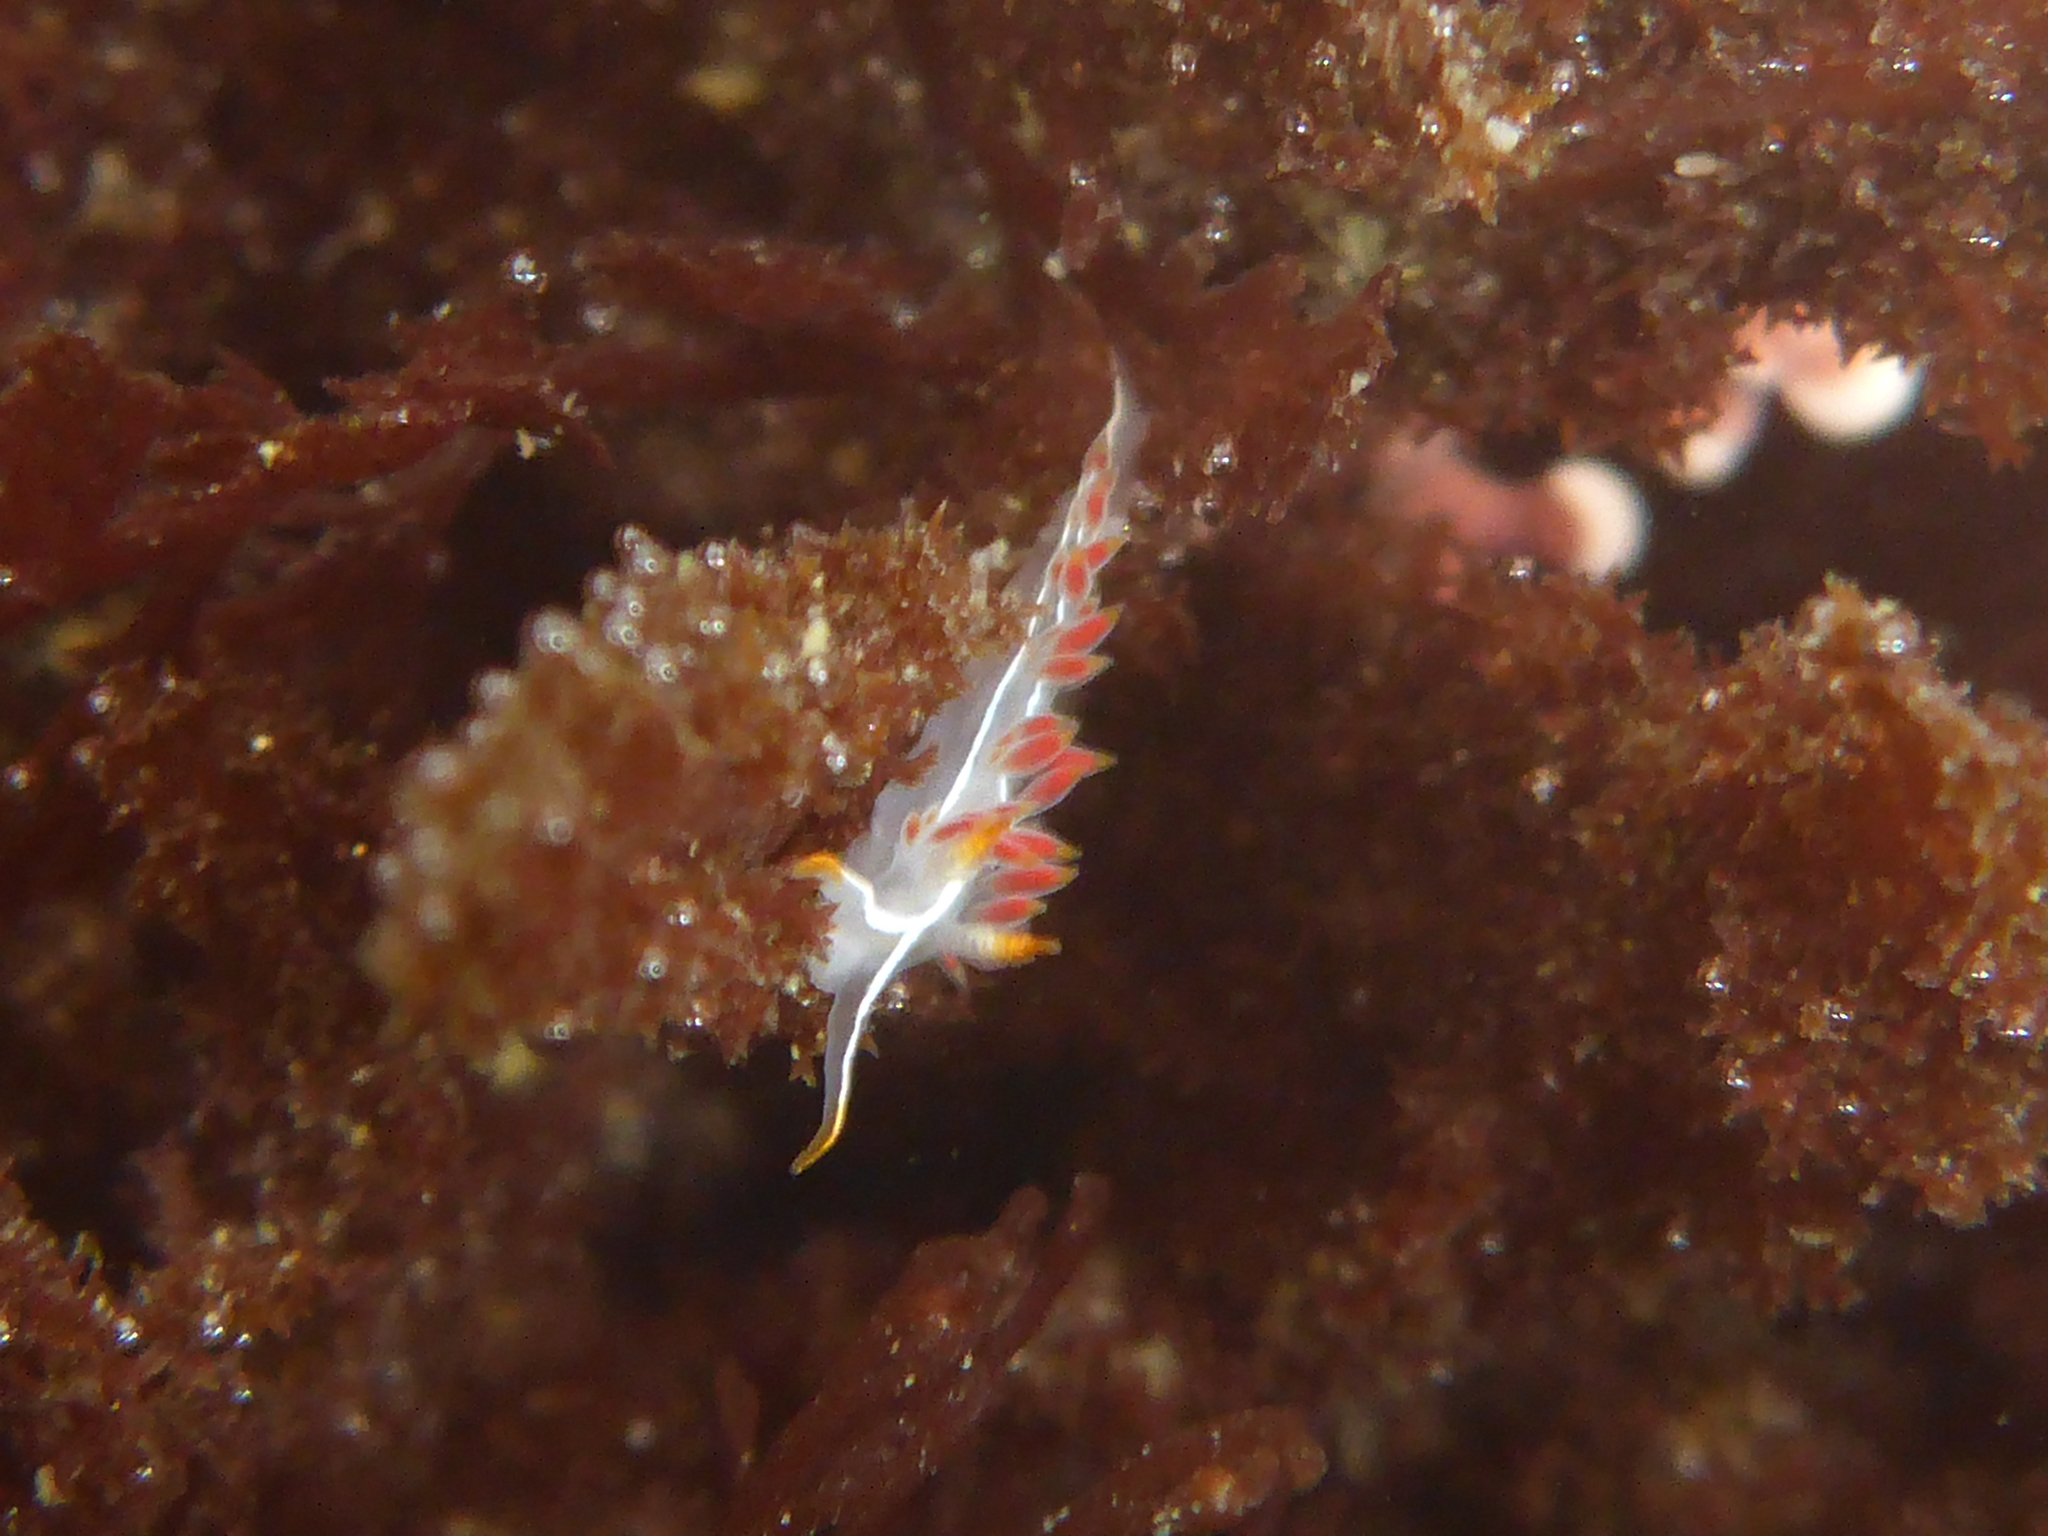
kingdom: Animalia
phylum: Mollusca
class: Gastropoda
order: Nudibranchia
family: Coryphellidae
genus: Coryphella
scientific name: Coryphella trilineata
